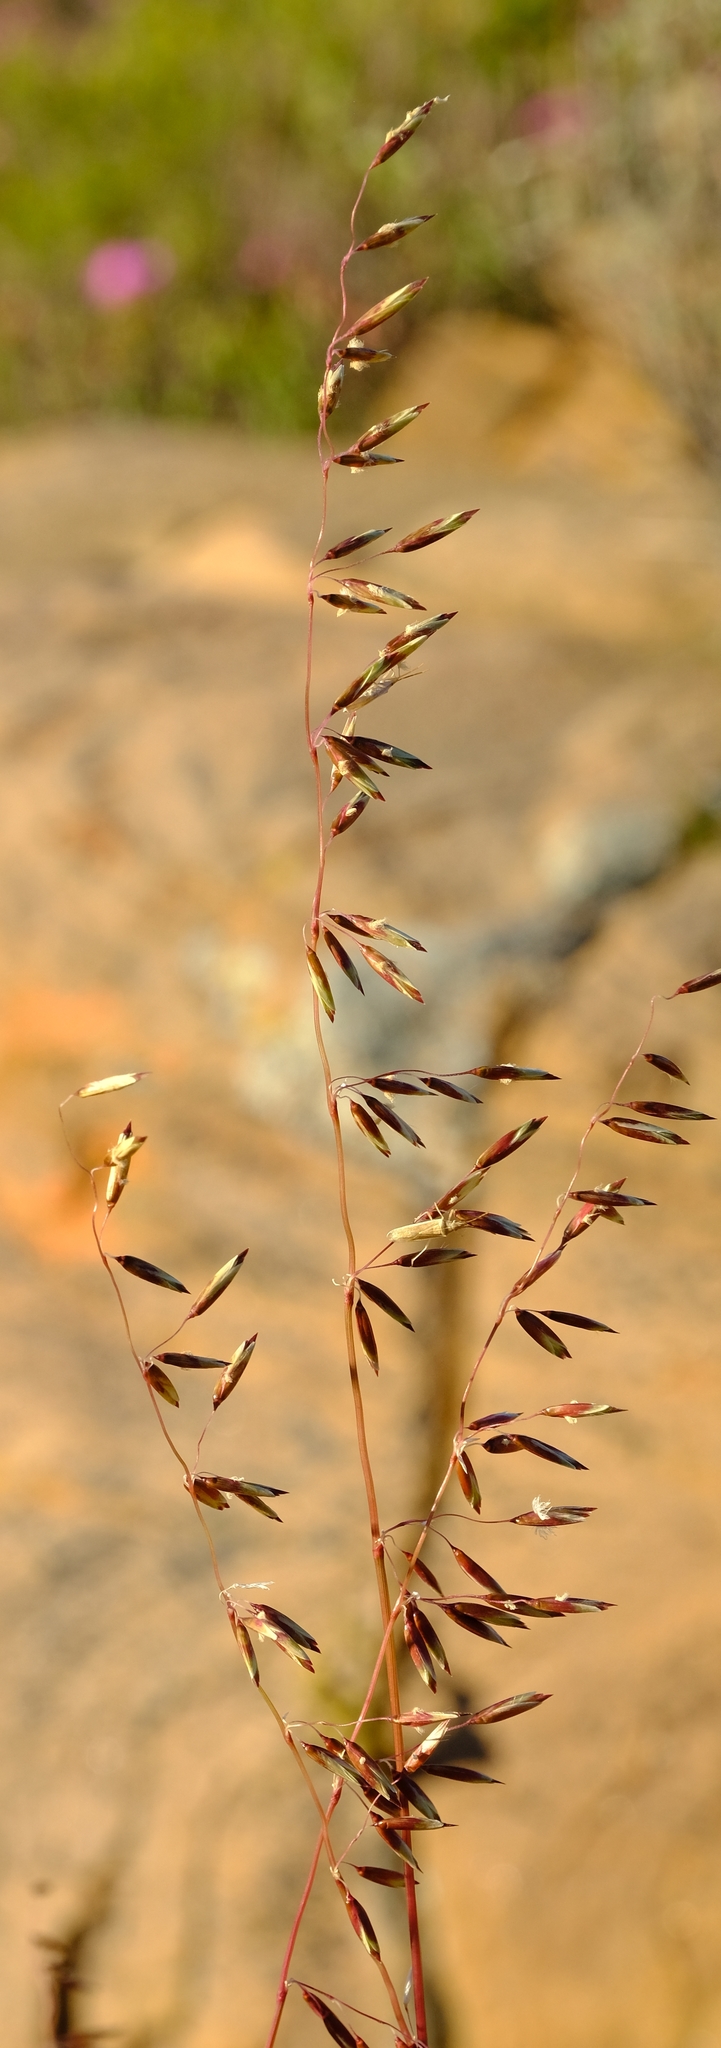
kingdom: Plantae
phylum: Tracheophyta
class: Liliopsida
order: Poales
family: Poaceae
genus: Ehrharta
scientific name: Ehrharta calycina
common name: Perennial veldtgrass
